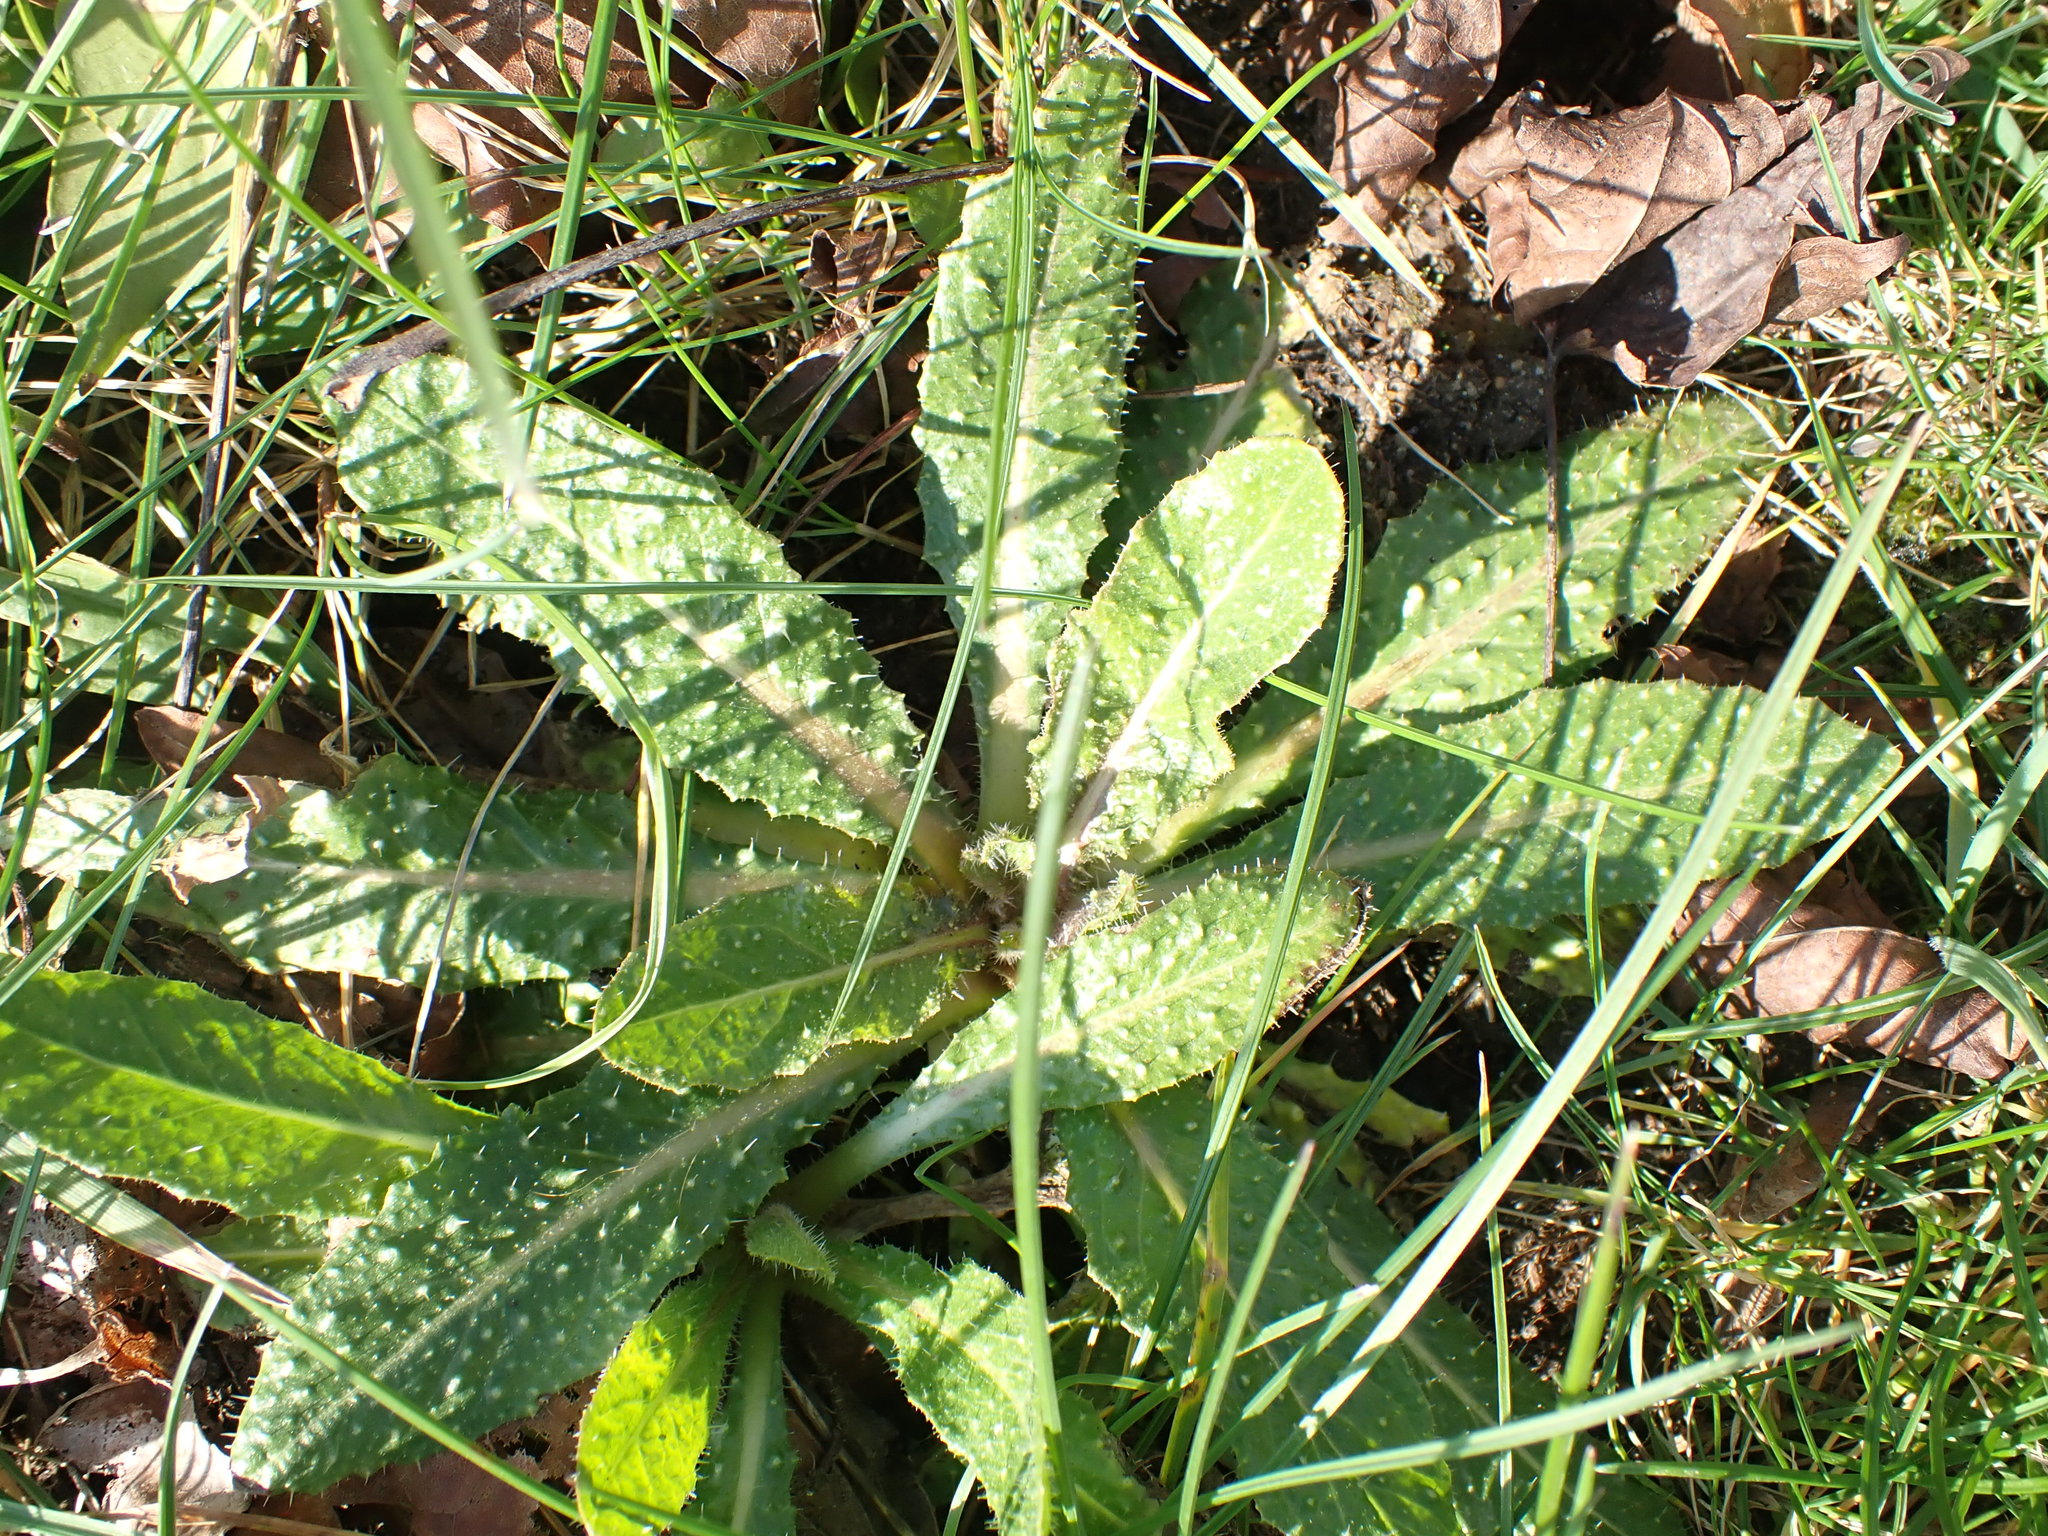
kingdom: Plantae
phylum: Tracheophyta
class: Magnoliopsida
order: Asterales
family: Asteraceae
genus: Helminthotheca
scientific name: Helminthotheca echioides
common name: Ox-tongue
